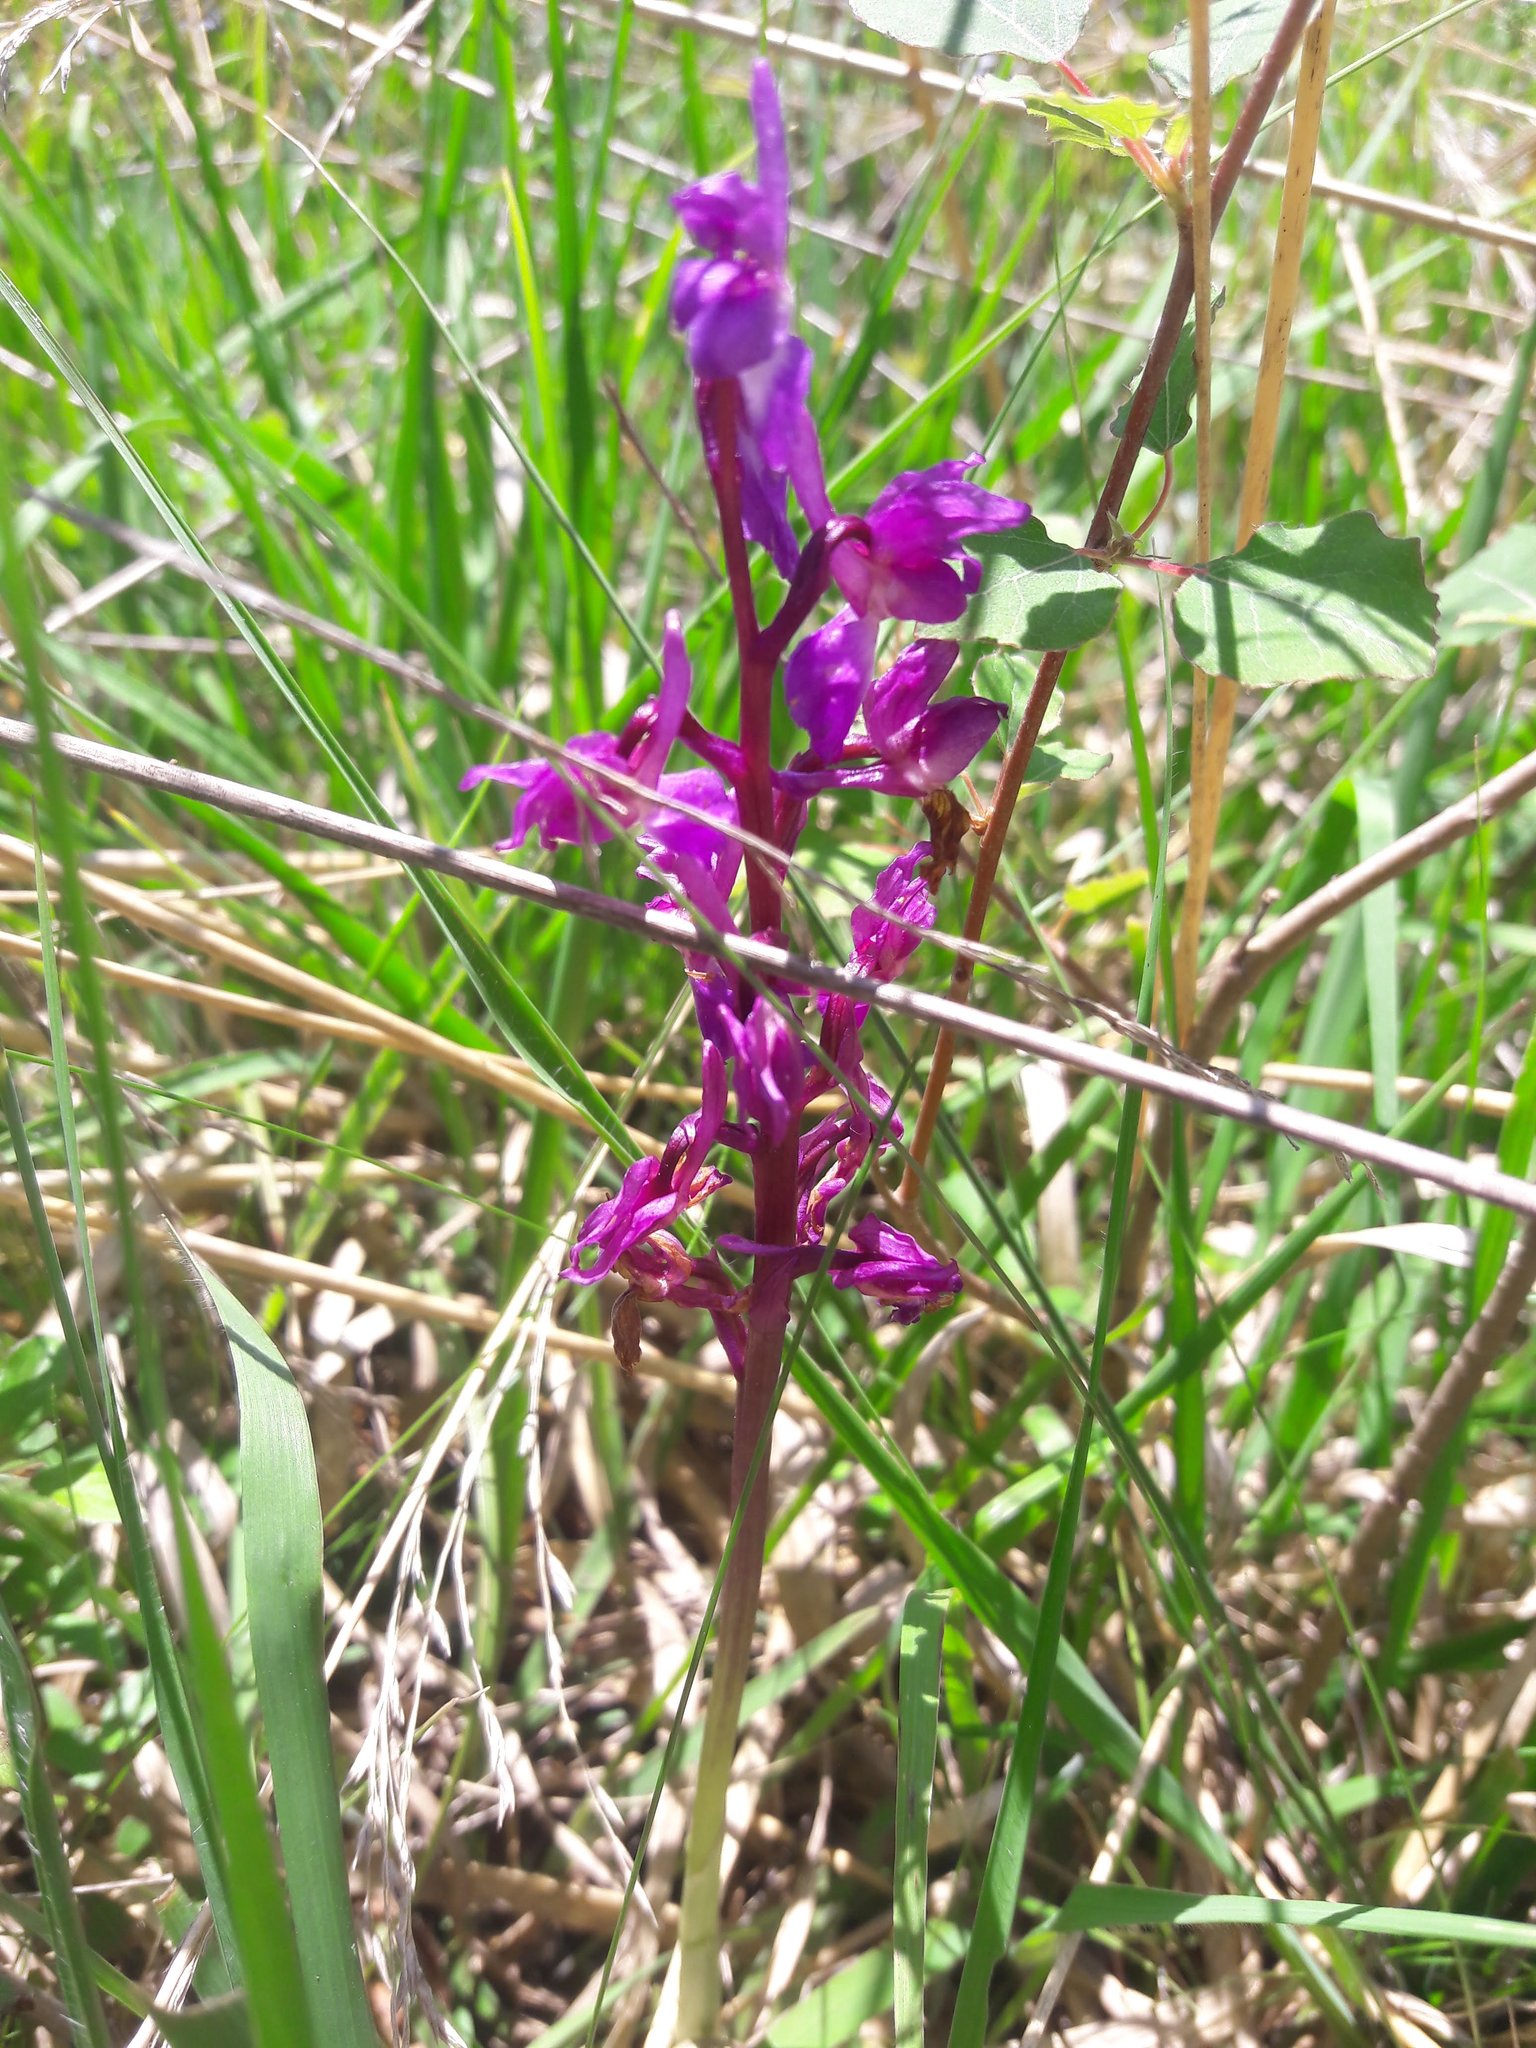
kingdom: Plantae
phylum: Tracheophyta
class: Liliopsida
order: Asparagales
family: Orchidaceae
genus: Orchis
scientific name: Orchis mascula
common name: Early-purple orchid
